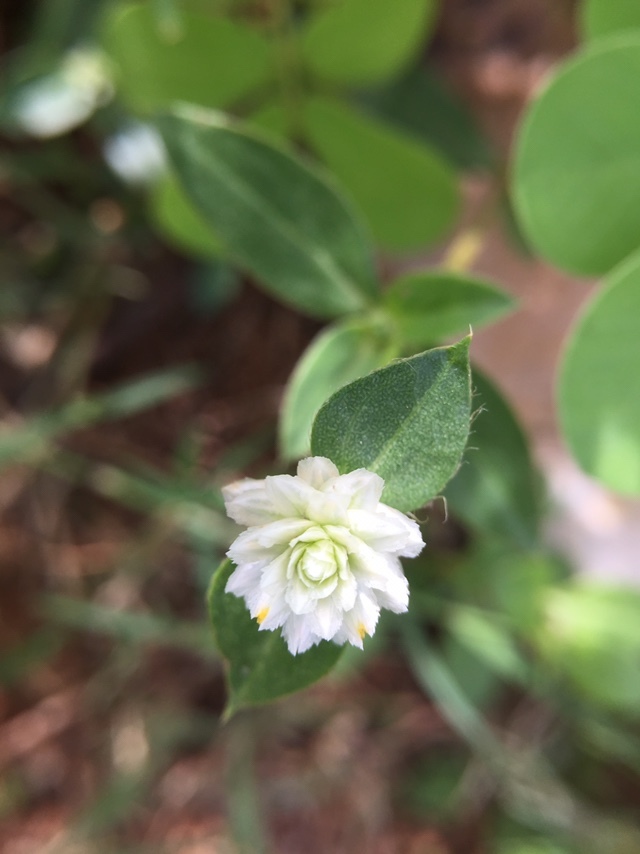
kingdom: Plantae
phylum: Tracheophyta
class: Magnoliopsida
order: Caryophyllales
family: Amaranthaceae
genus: Gomphrena
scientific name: Gomphrena serrata
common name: Arrasa con todo
